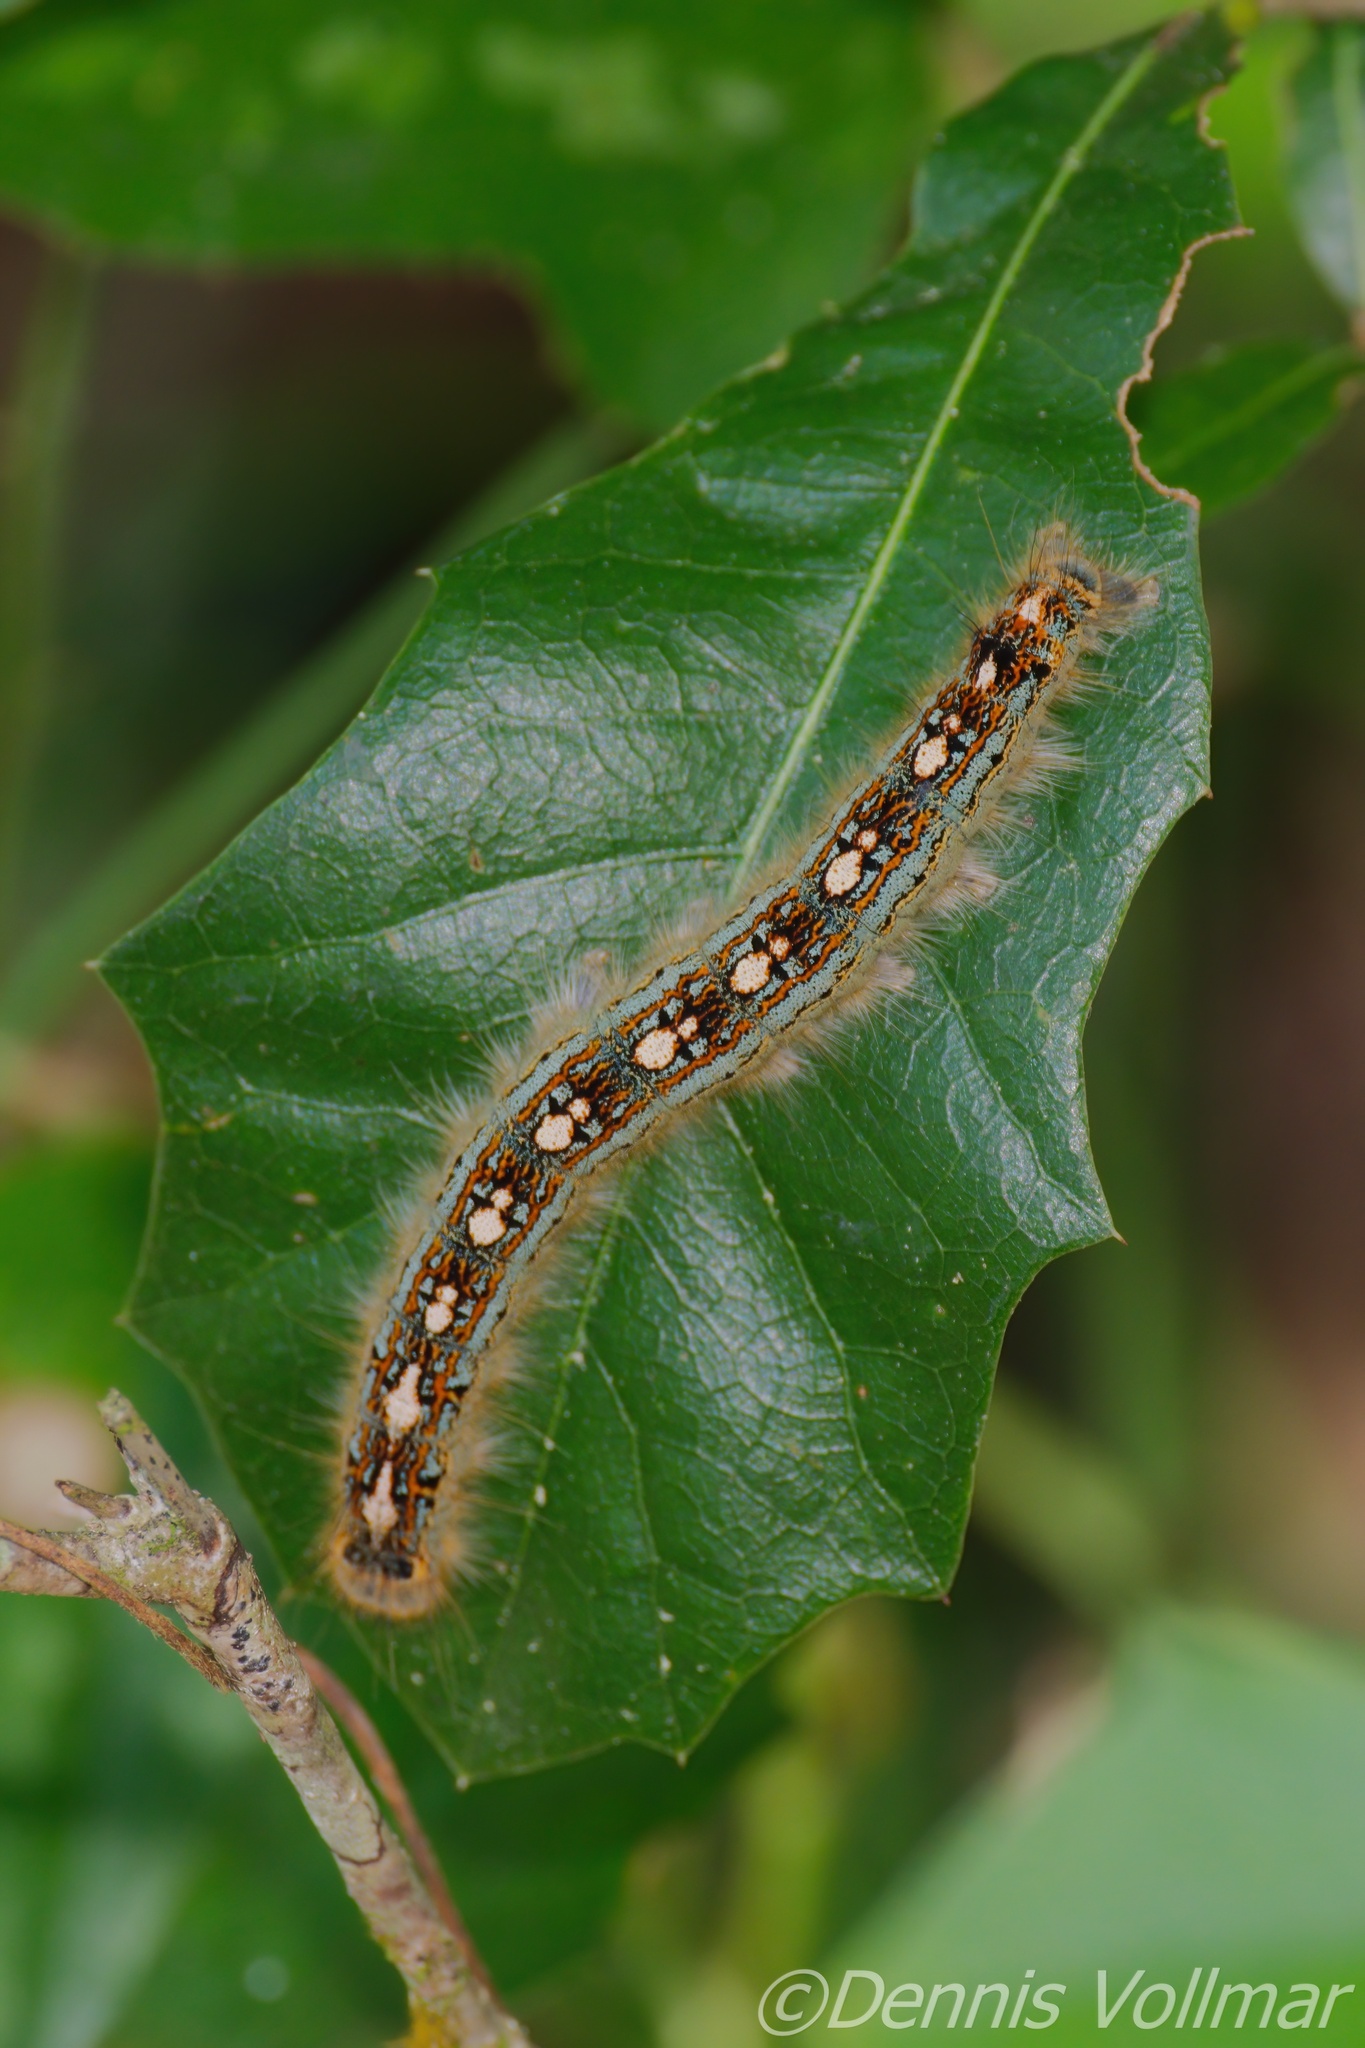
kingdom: Animalia
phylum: Arthropoda
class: Insecta
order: Lepidoptera
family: Lasiocampidae
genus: Malacosoma
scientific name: Malacosoma disstria
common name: Forest tent caterpillar
